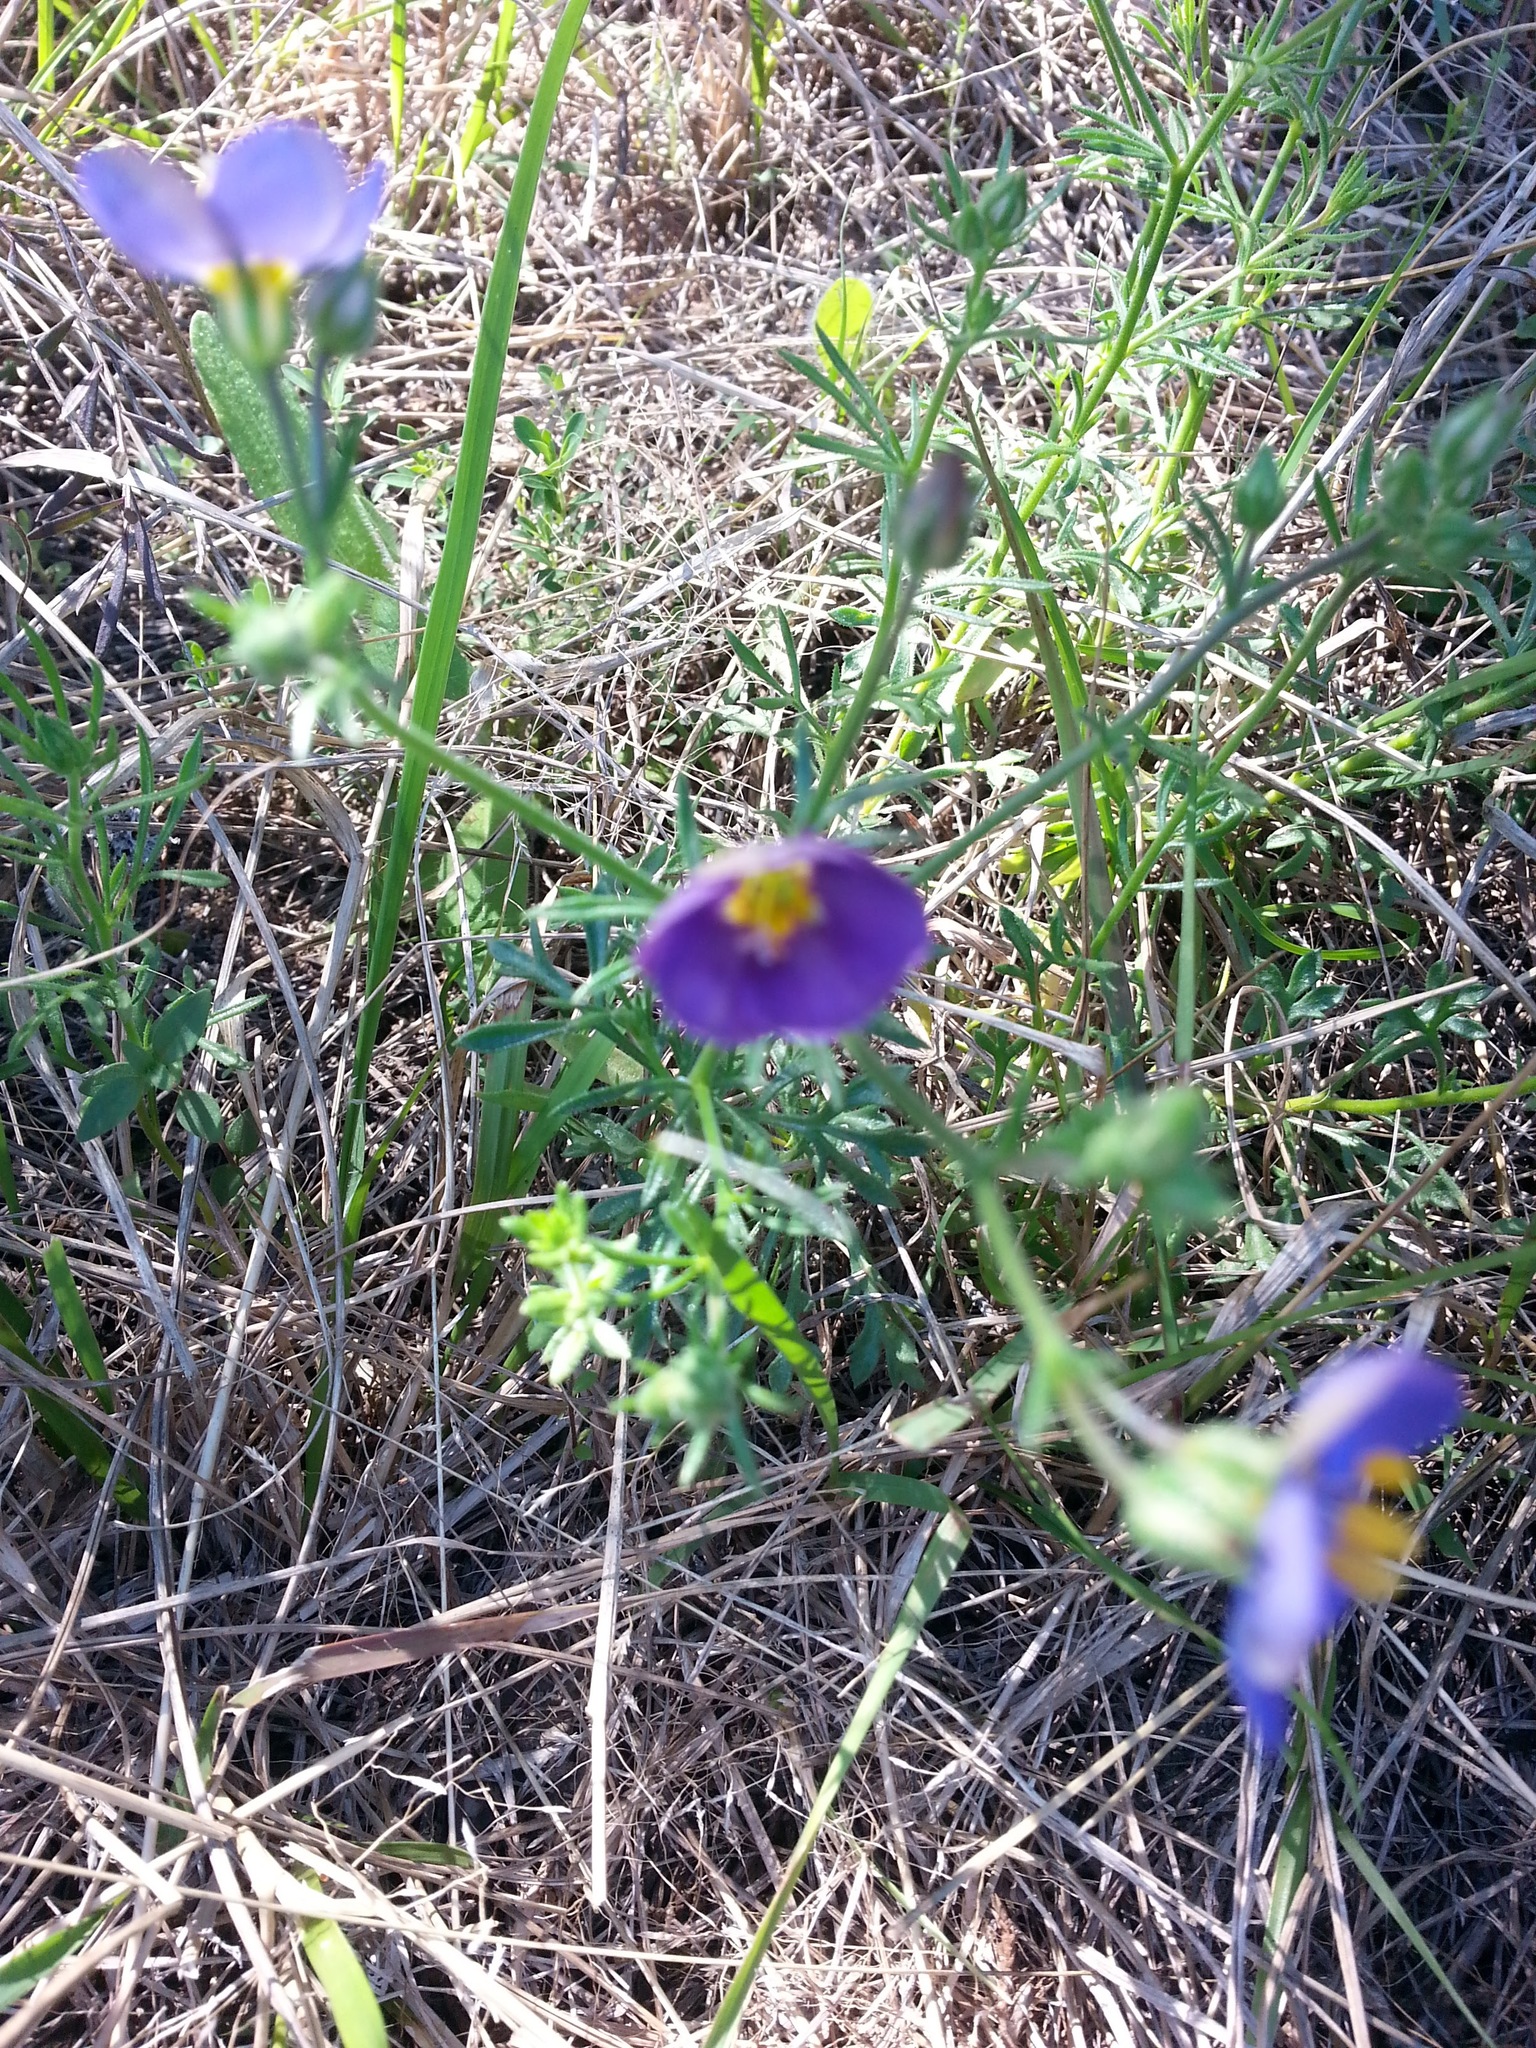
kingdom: Plantae
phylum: Tracheophyta
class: Magnoliopsida
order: Ericales
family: Polemoniaceae
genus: Giliastrum
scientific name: Giliastrum rigidulum
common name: Bluebowls
